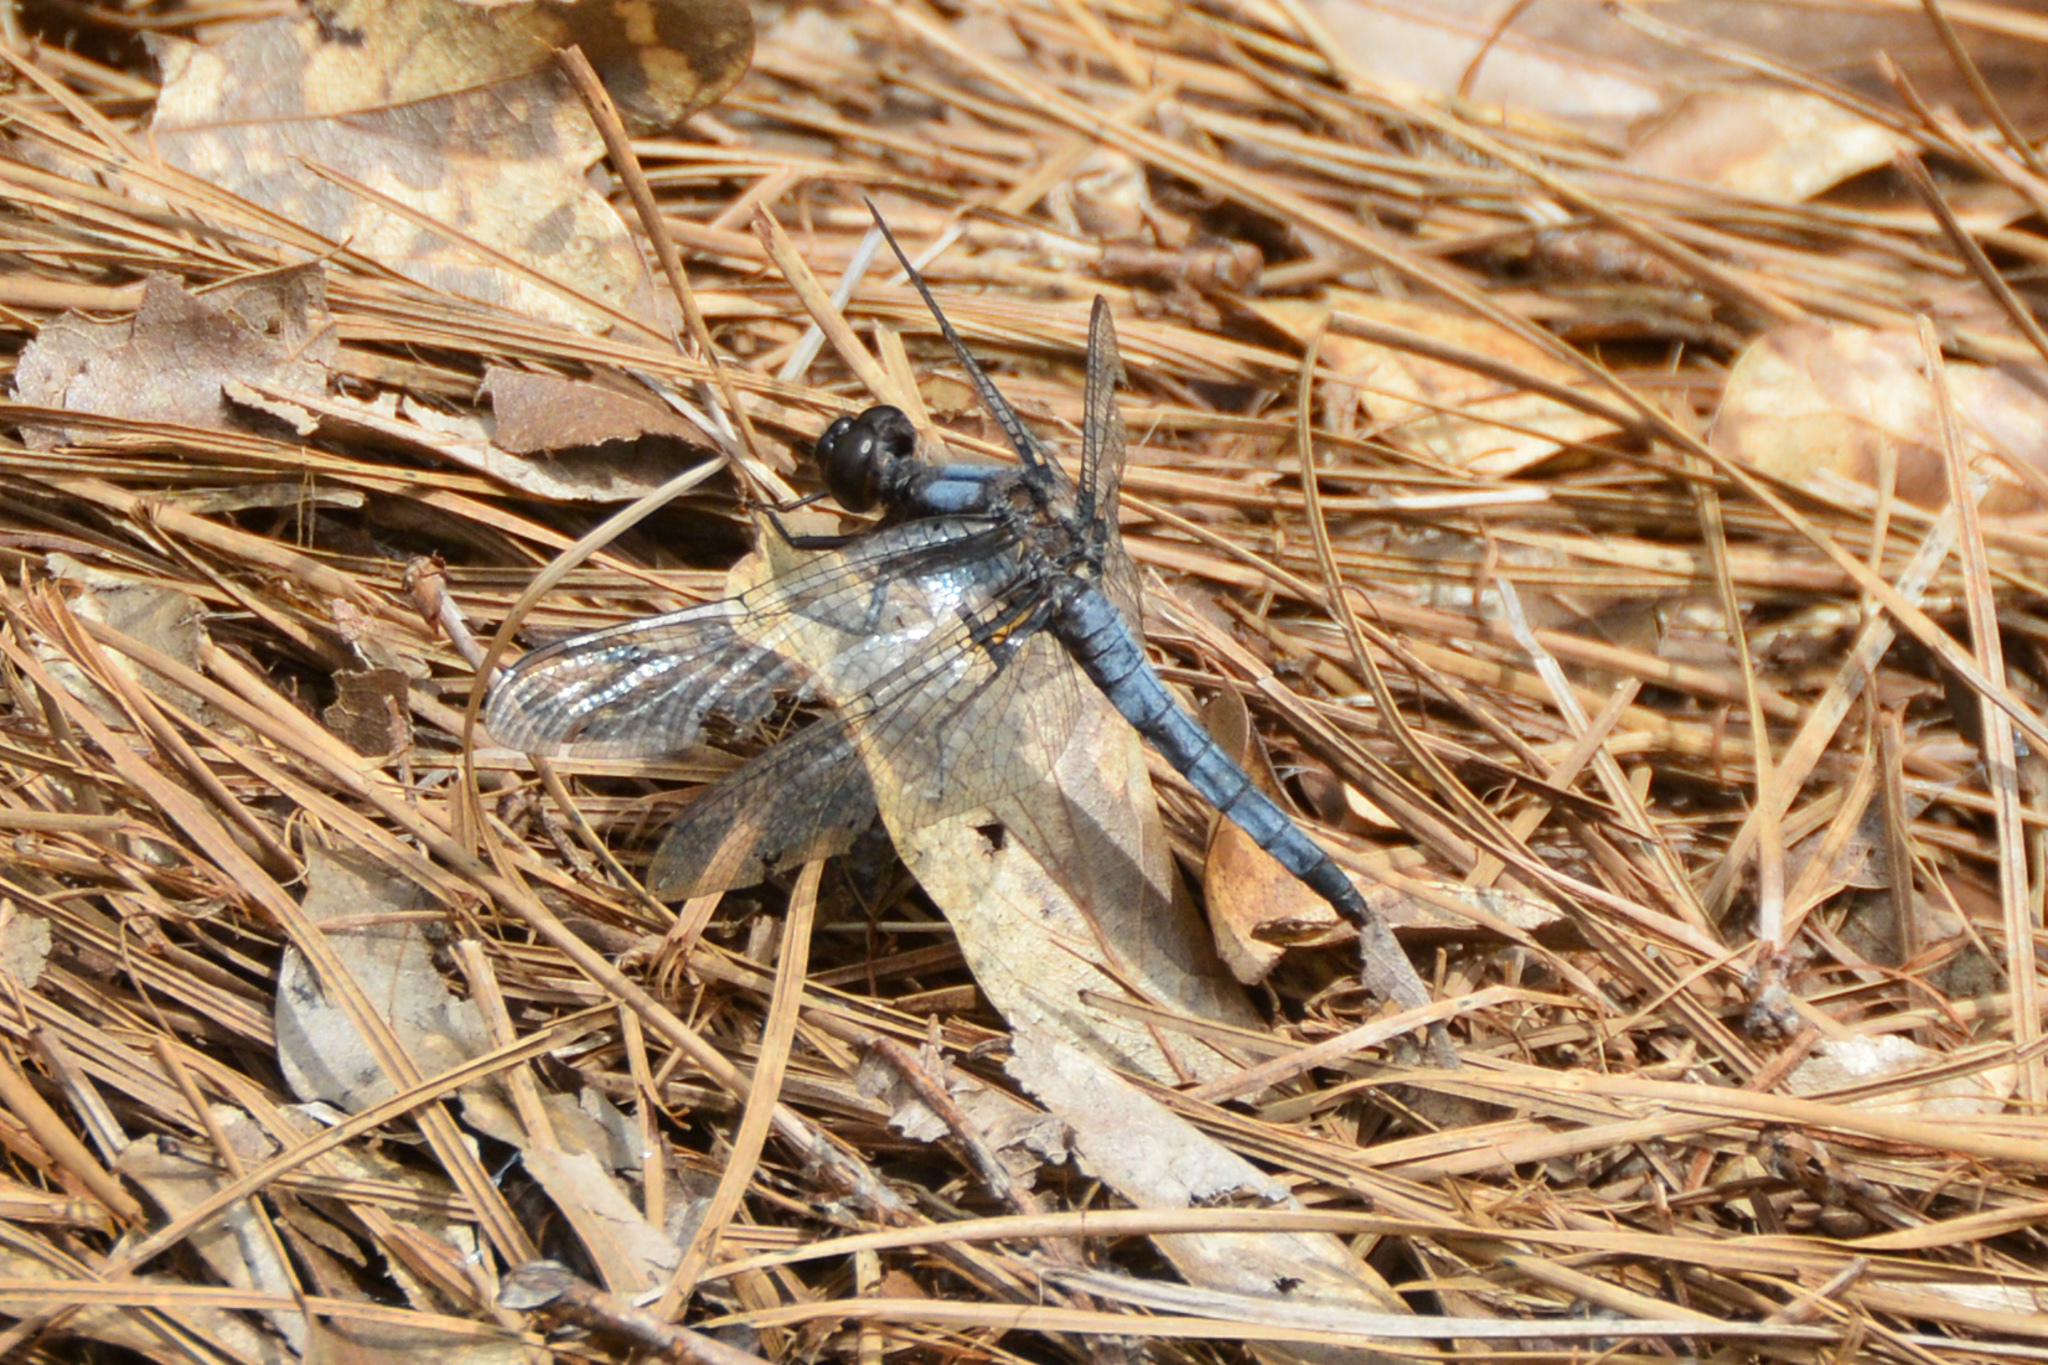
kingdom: Animalia
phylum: Arthropoda
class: Insecta
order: Odonata
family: Libellulidae
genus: Ladona
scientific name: Ladona deplanata
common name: Blue corporal
